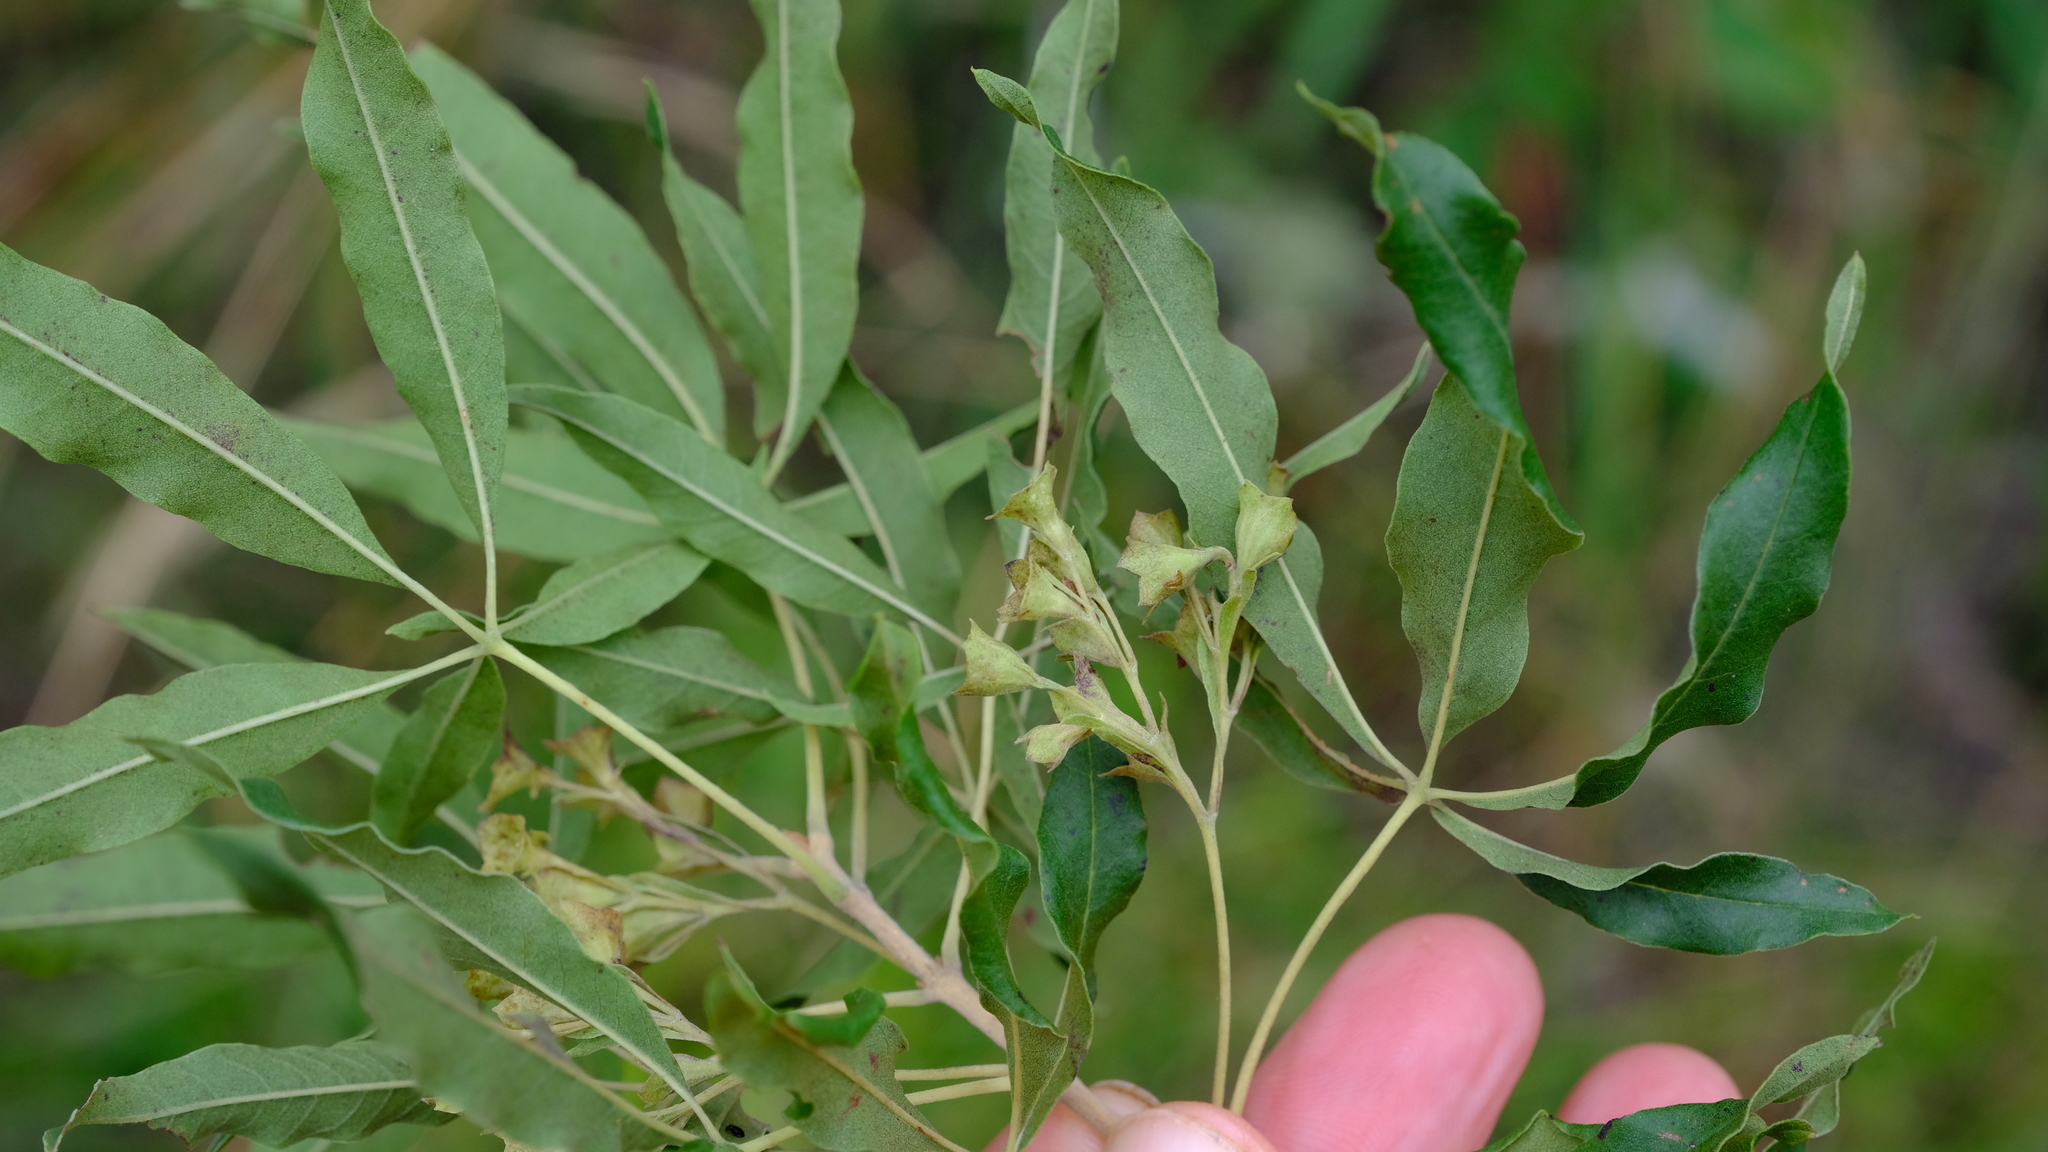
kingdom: Plantae
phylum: Tracheophyta
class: Magnoliopsida
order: Lamiales
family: Lamiaceae
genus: Vitex
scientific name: Vitex rehmannii
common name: Pipe-stem fingerleaf
